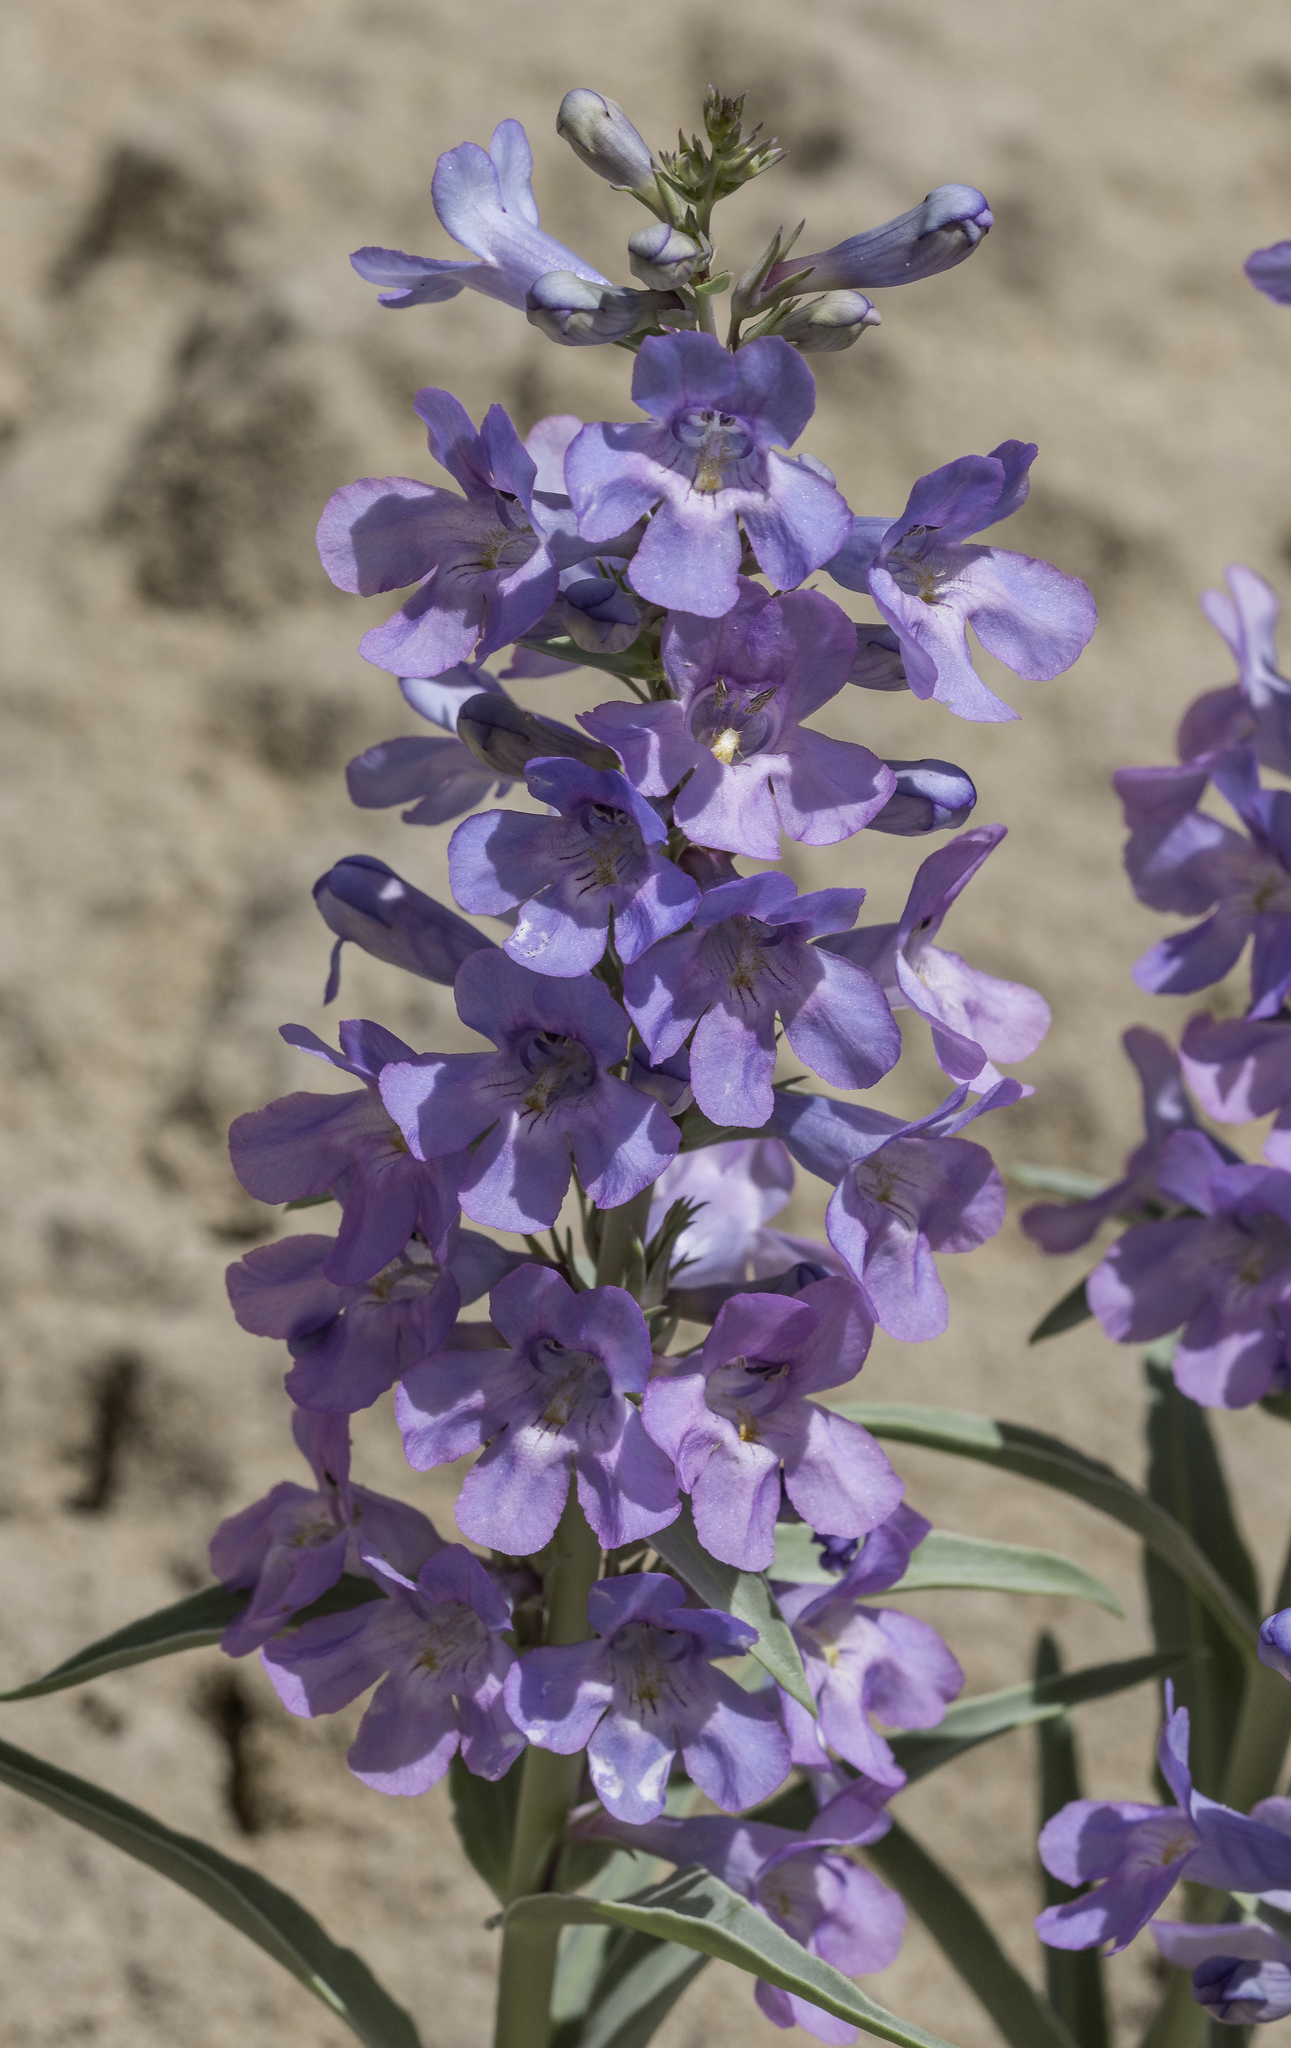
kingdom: Plantae
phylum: Tracheophyta
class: Magnoliopsida
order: Lamiales
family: Plantaginaceae
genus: Penstemon
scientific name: Penstemon angustifolius
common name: Narrow beardtongue
